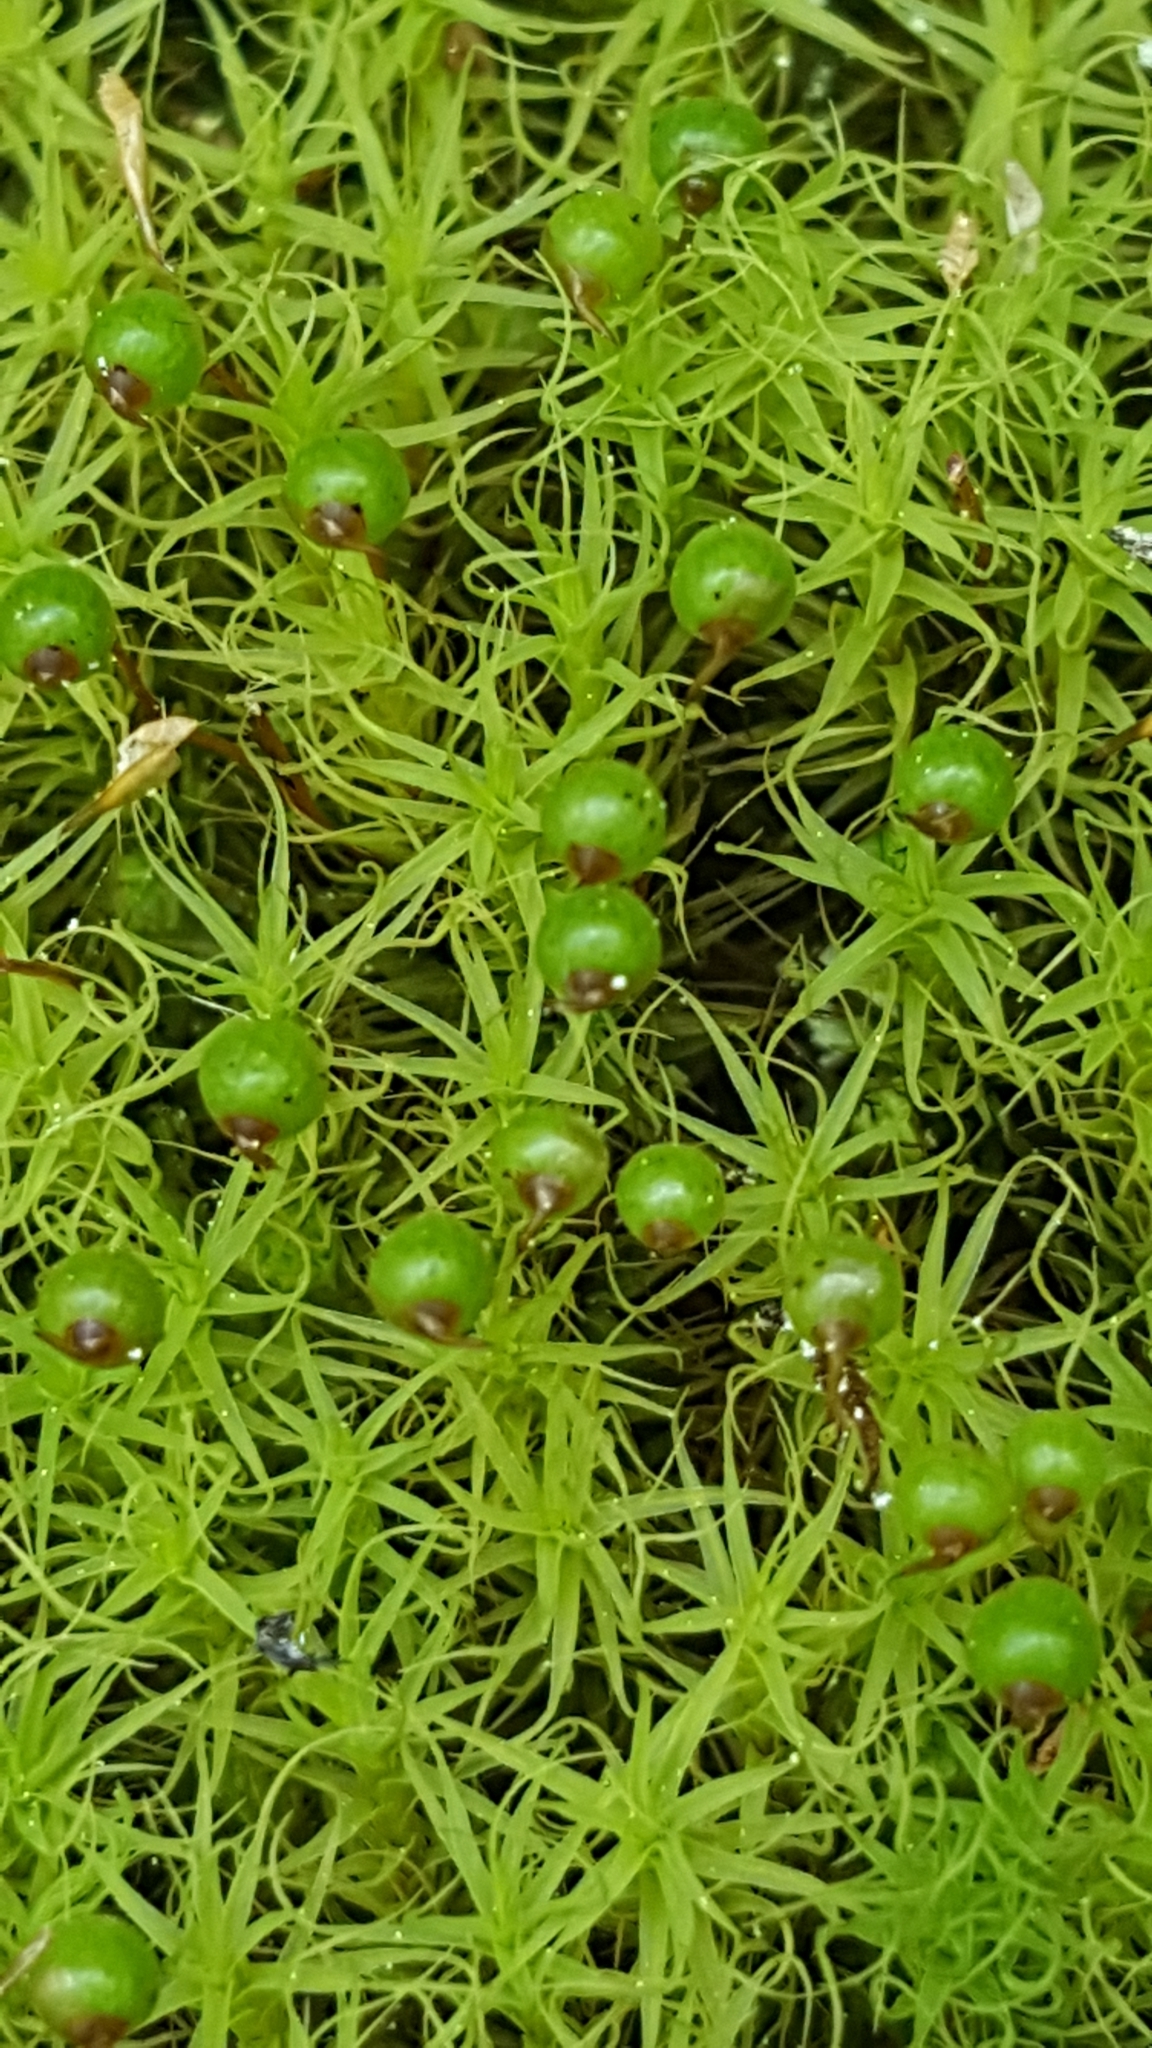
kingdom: Plantae
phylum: Bryophyta
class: Bryopsida
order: Bartramiales
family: Bartramiaceae
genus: Bartramia
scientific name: Bartramia ithyphylla
